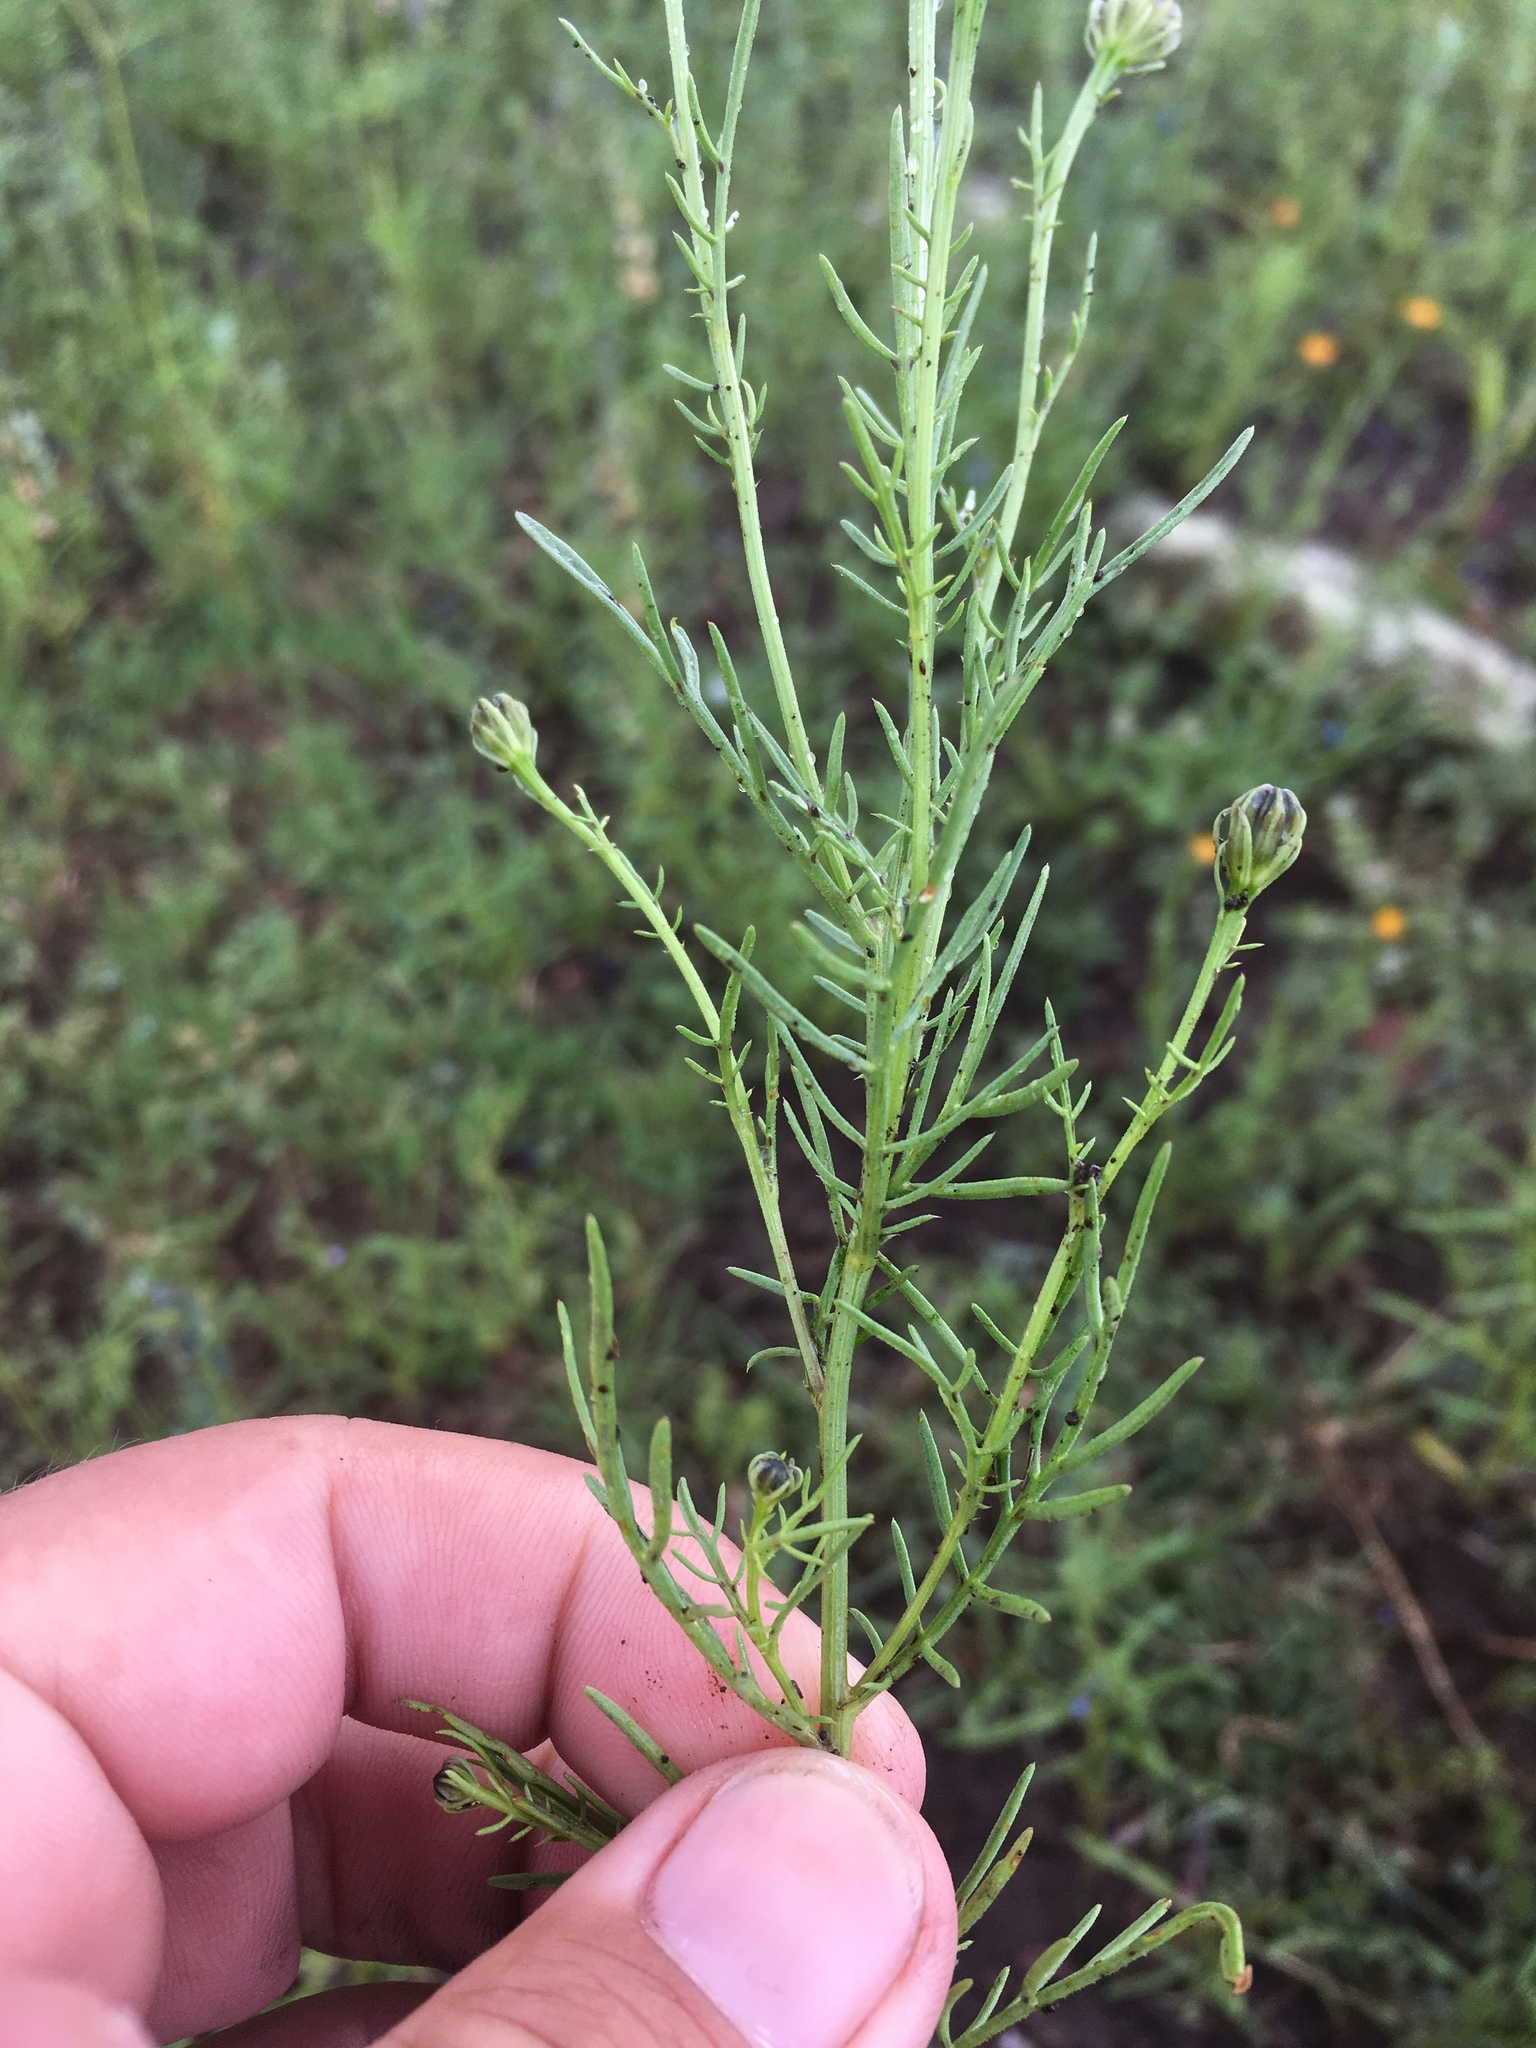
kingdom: Plantae
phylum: Tracheophyta
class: Magnoliopsida
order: Asterales
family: Asteraceae
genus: Adenophyllum
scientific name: Adenophyllum wrightii
